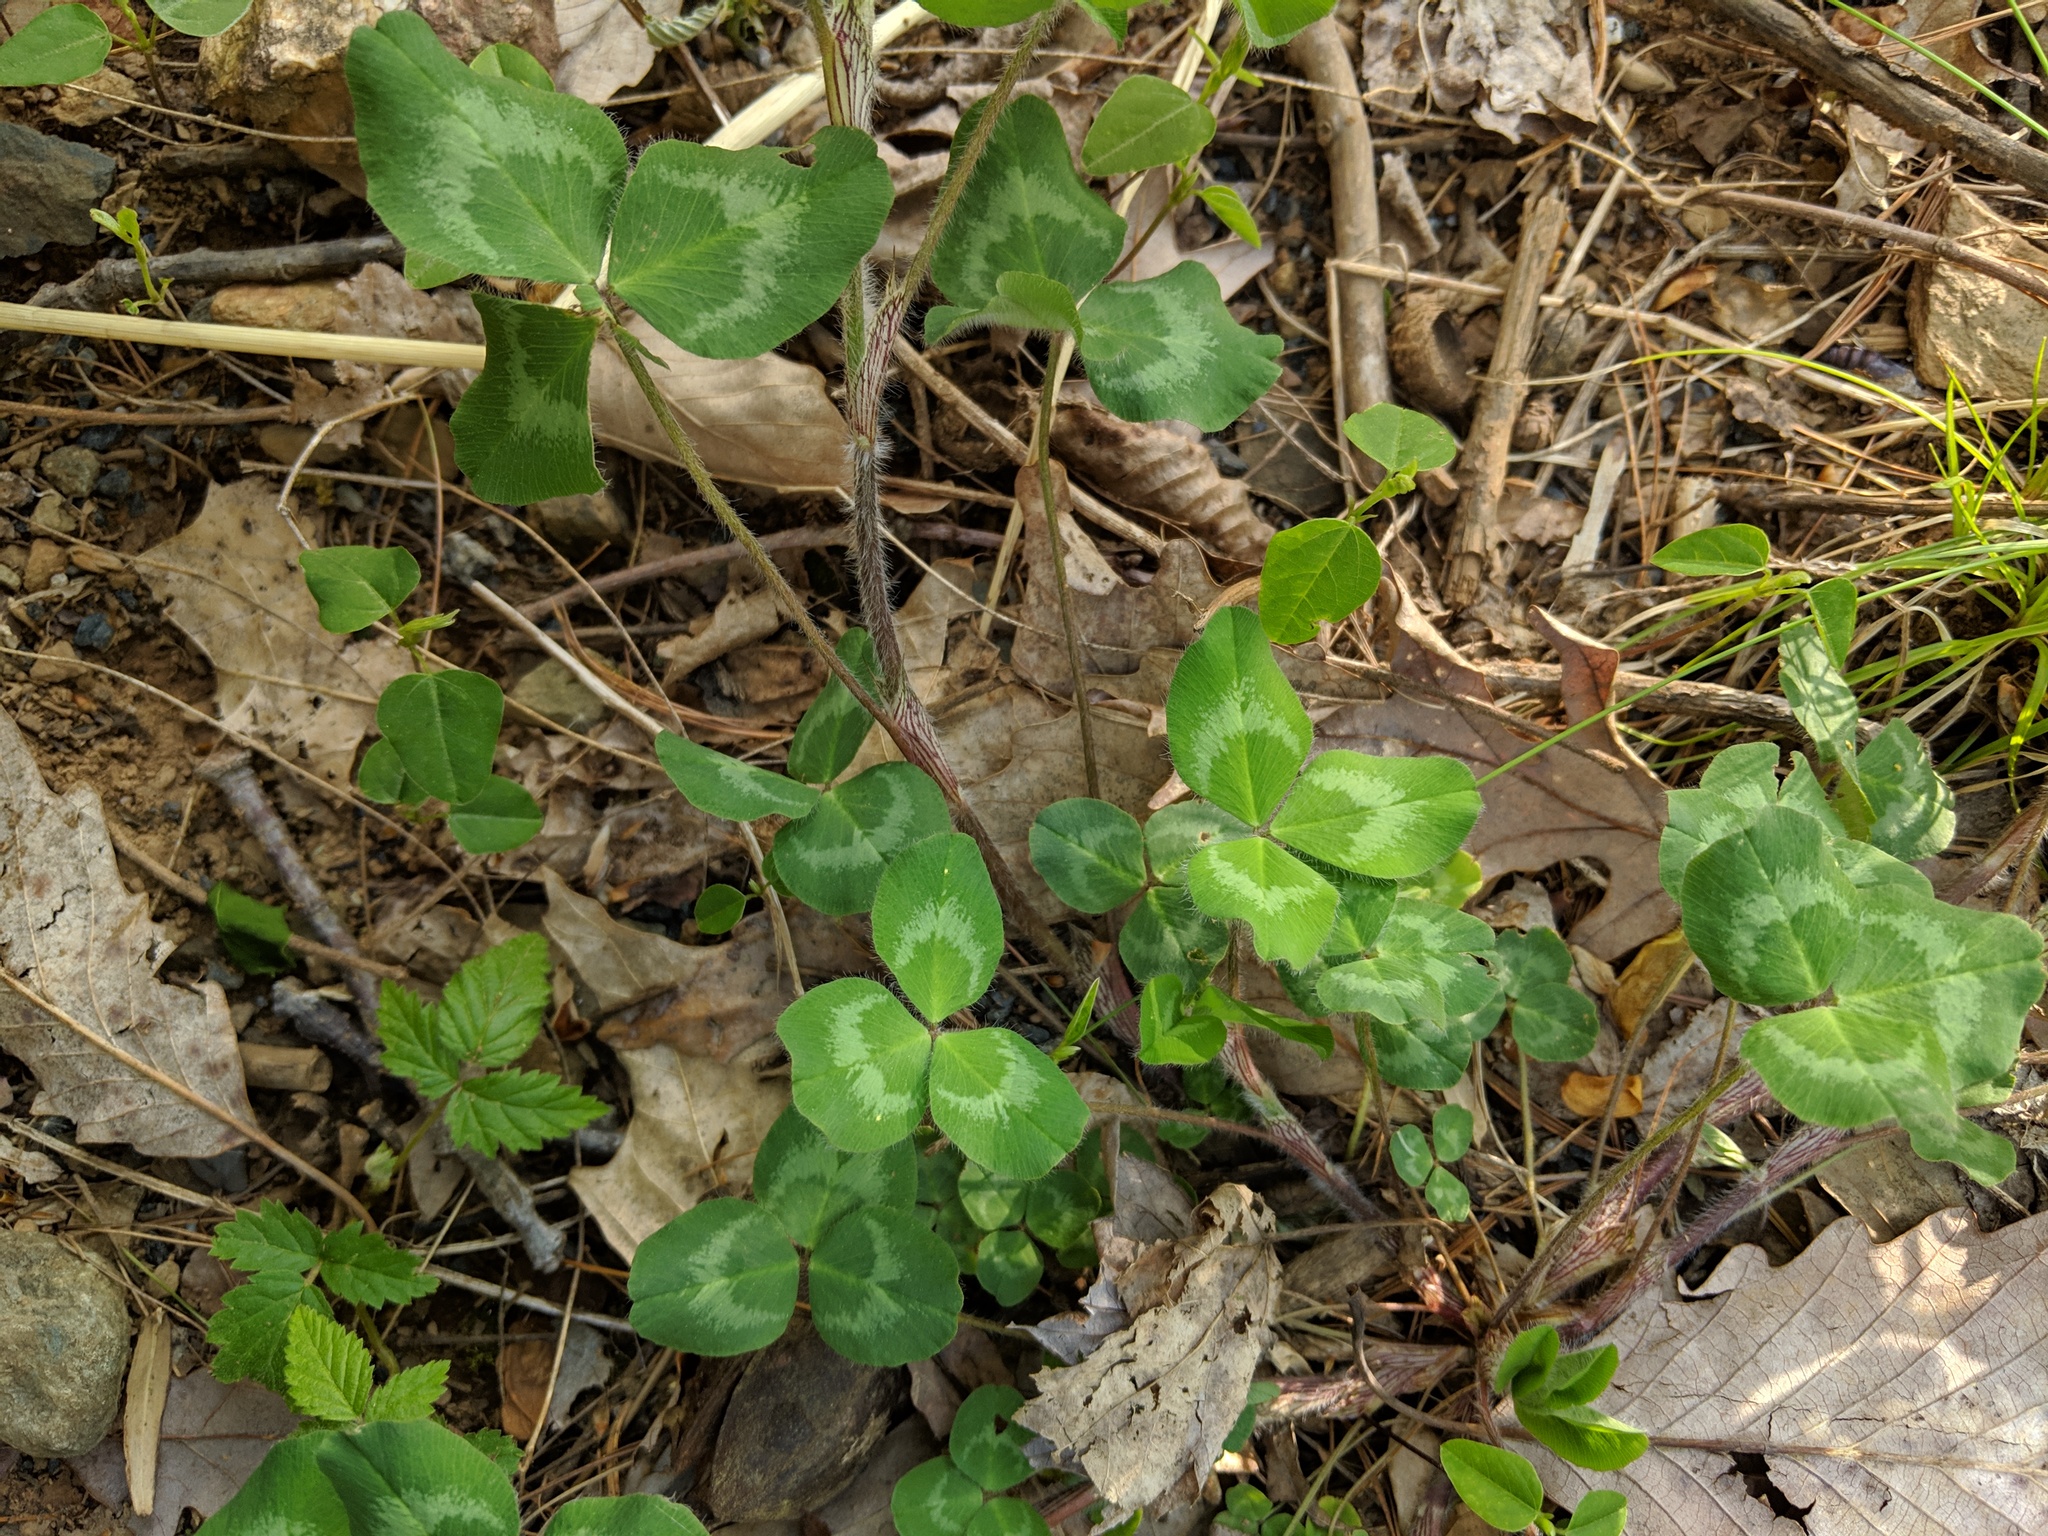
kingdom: Plantae
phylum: Tracheophyta
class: Magnoliopsida
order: Fabales
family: Fabaceae
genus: Trifolium
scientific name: Trifolium pratense
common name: Red clover
